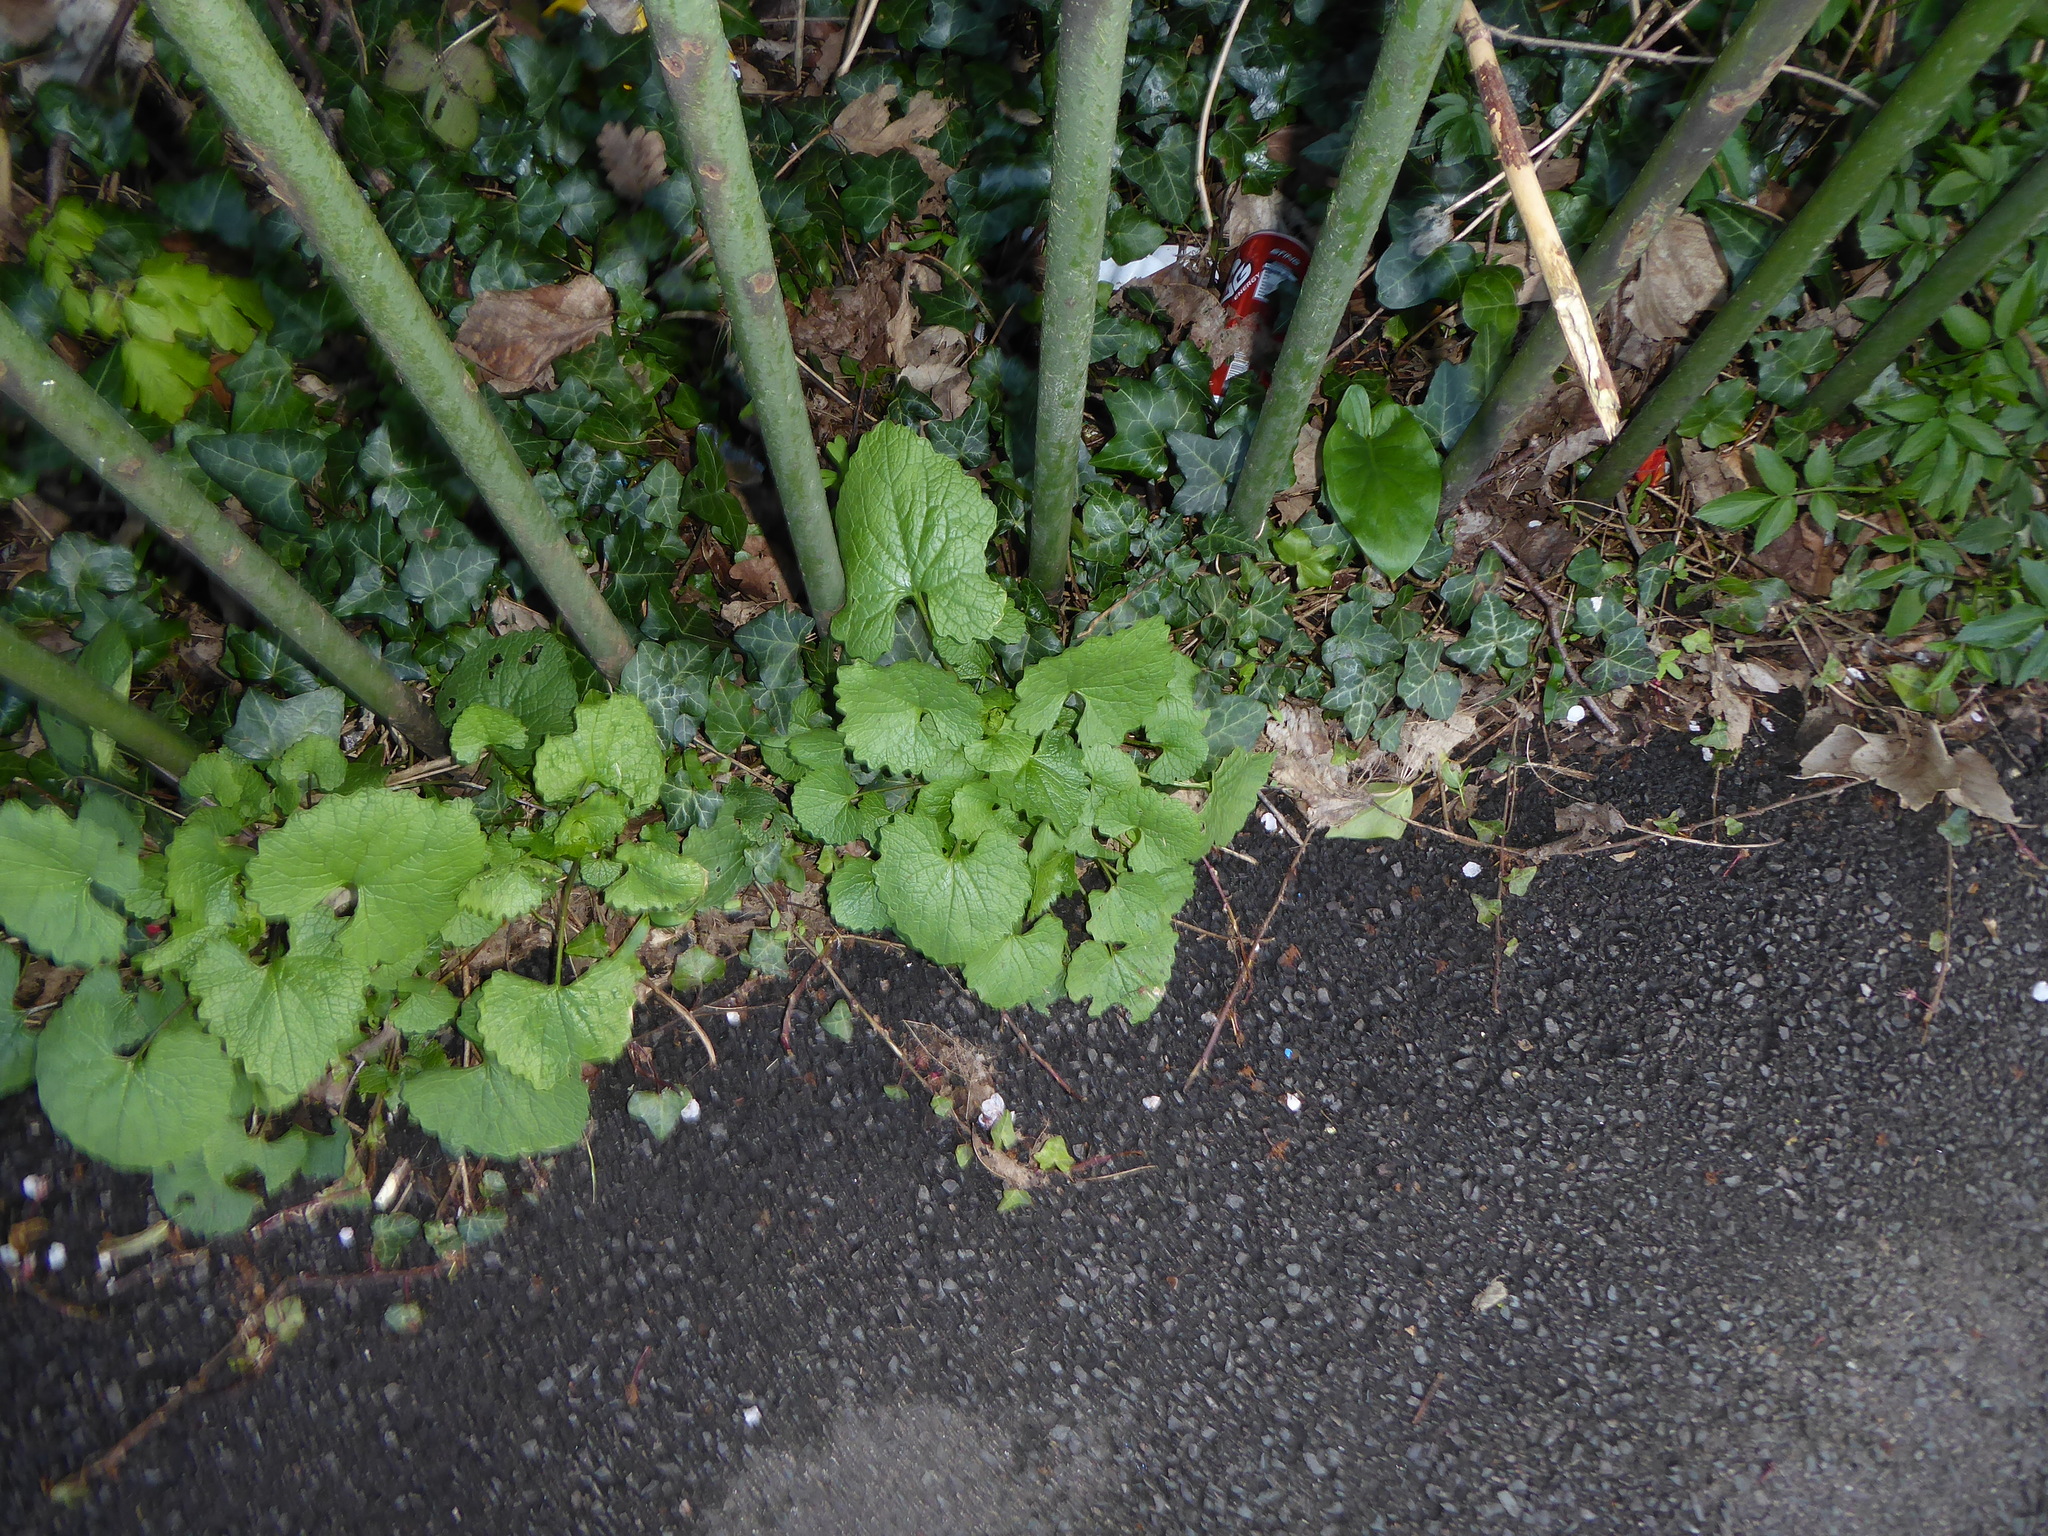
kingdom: Plantae
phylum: Tracheophyta
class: Magnoliopsida
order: Brassicales
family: Brassicaceae
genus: Alliaria
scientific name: Alliaria petiolata
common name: Garlic mustard
